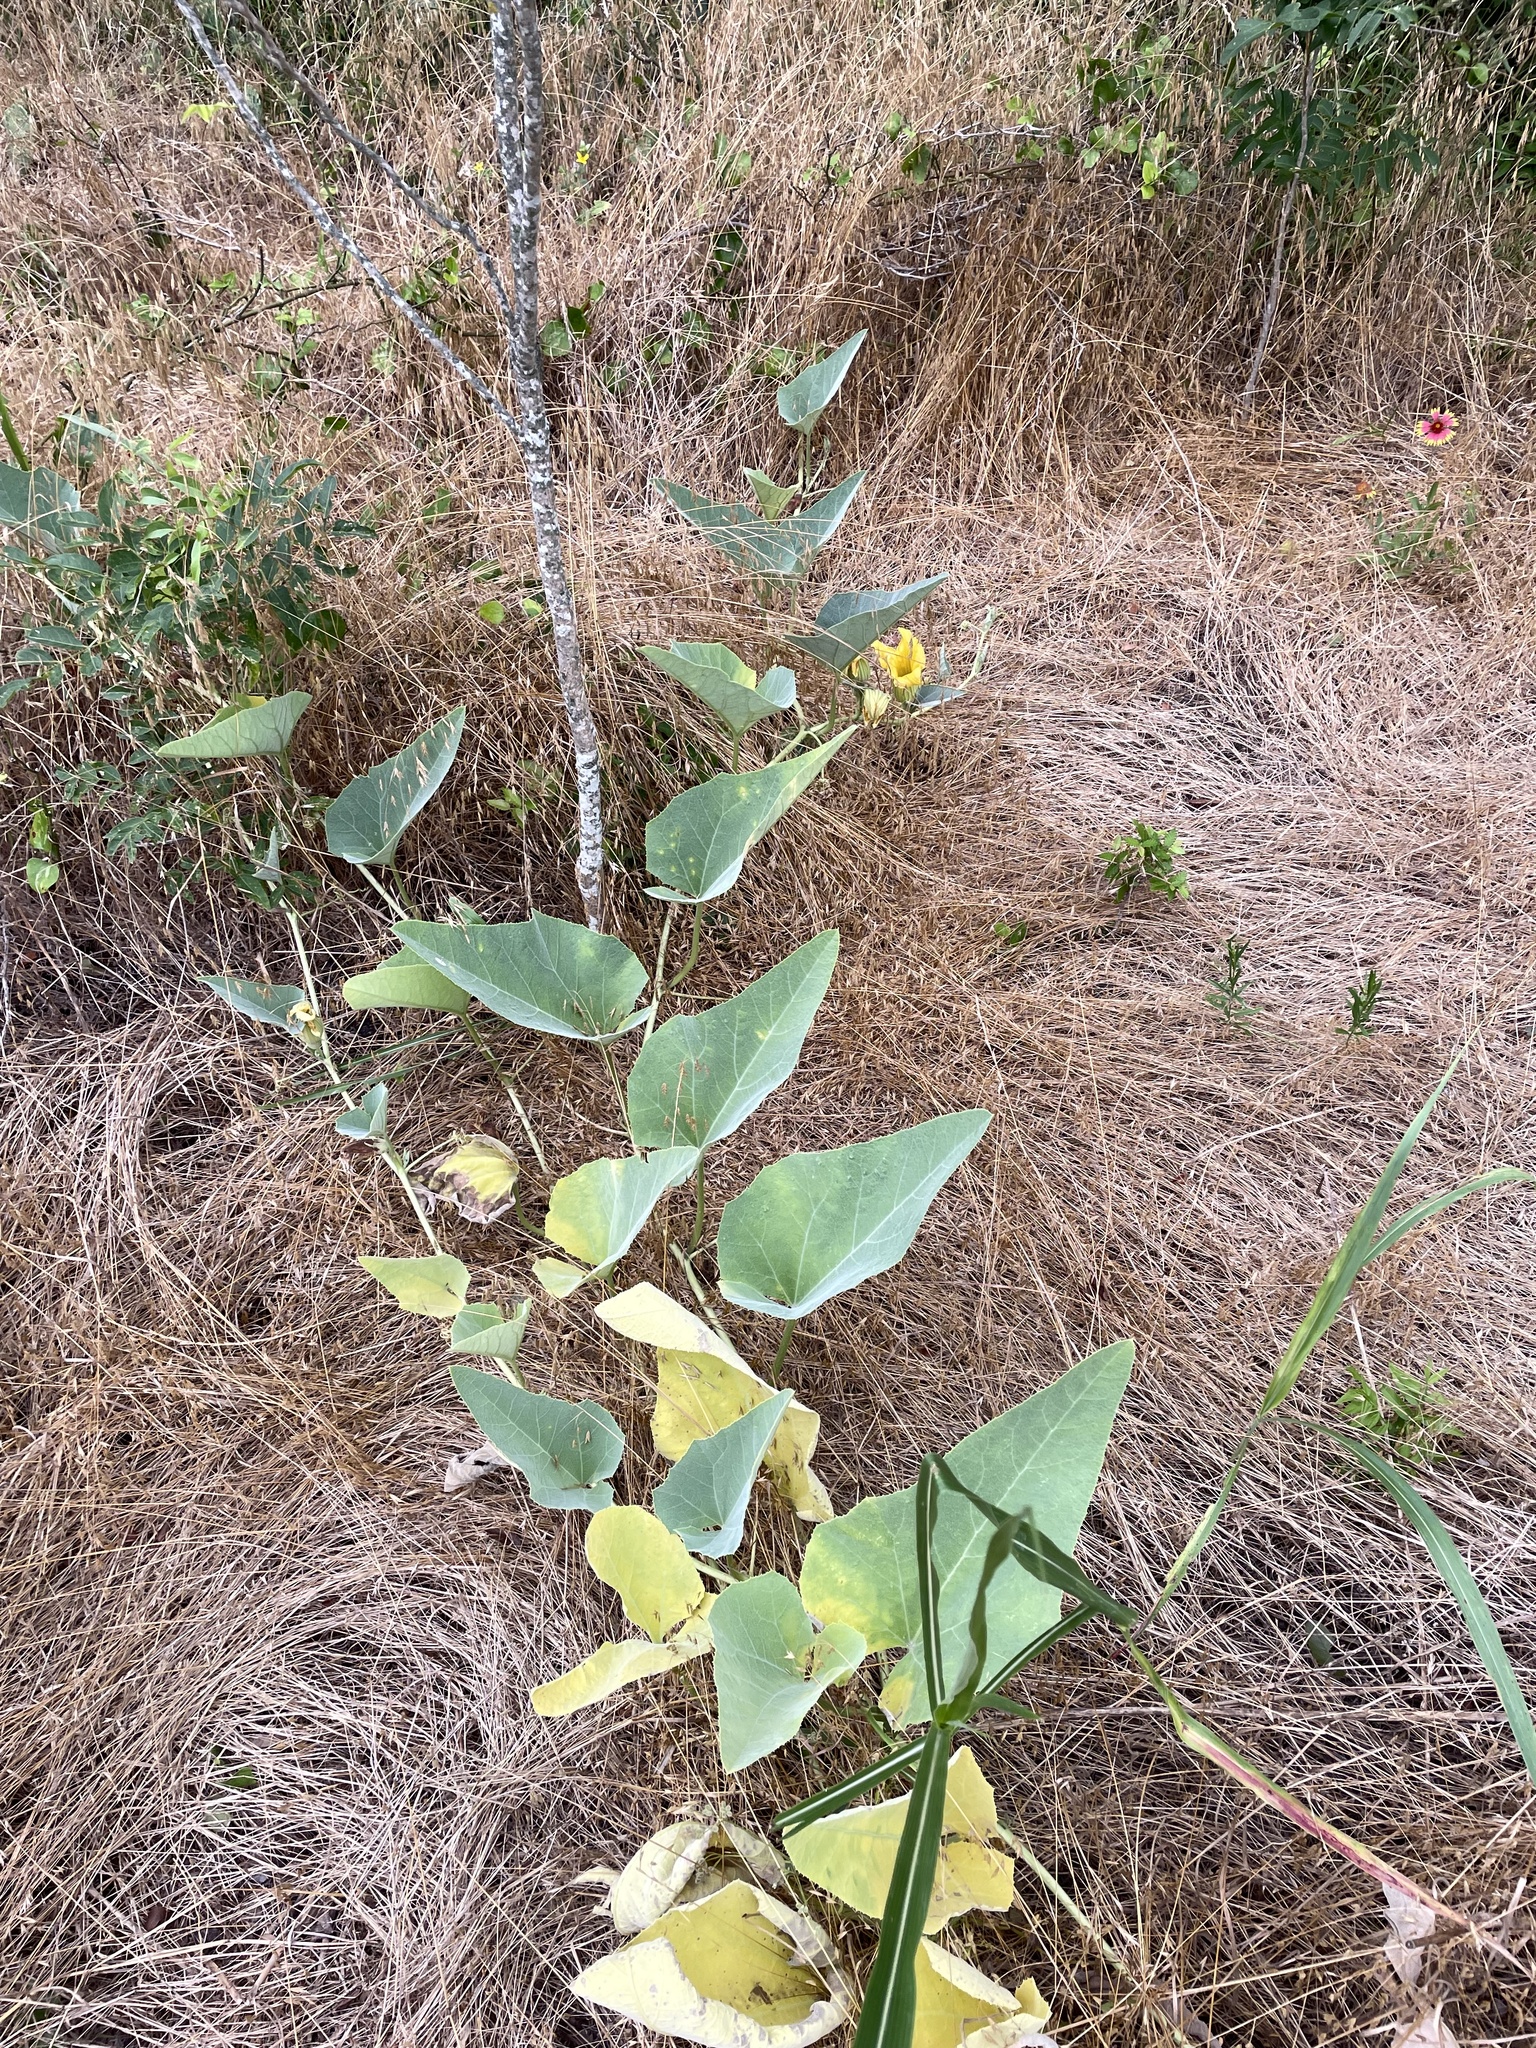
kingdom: Plantae
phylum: Tracheophyta
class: Magnoliopsida
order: Cucurbitales
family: Cucurbitaceae
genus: Cucurbita
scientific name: Cucurbita foetidissima
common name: Buffalo gourd
